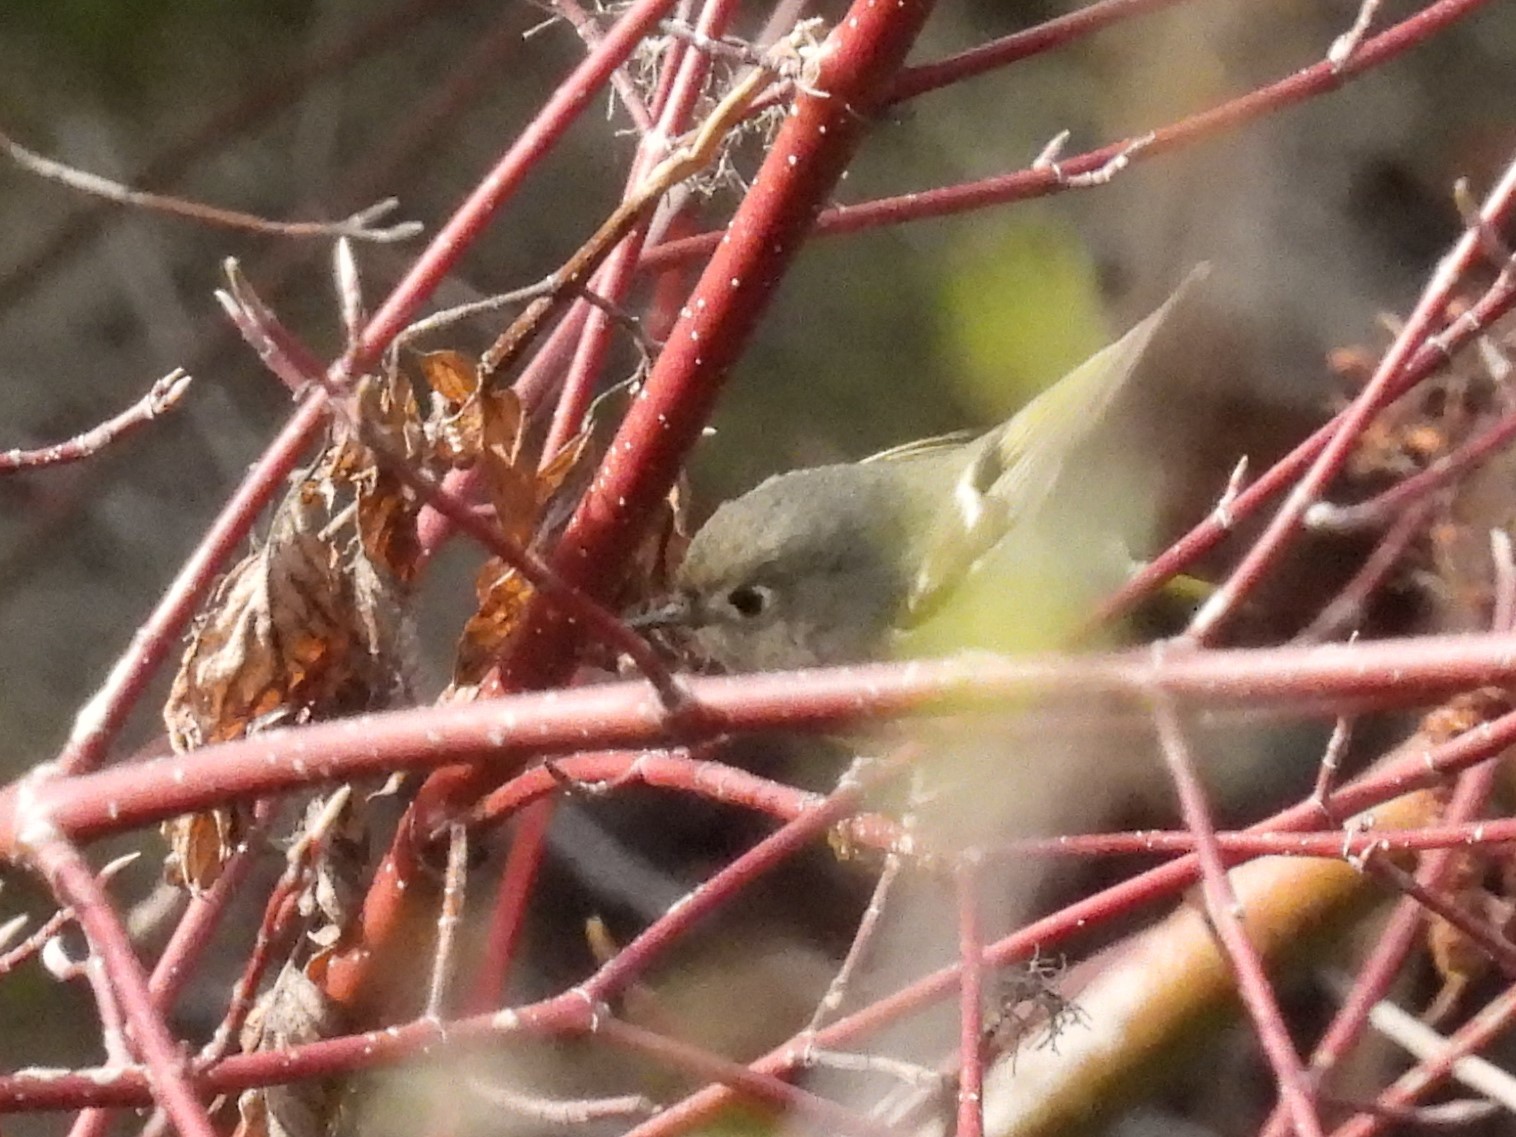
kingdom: Animalia
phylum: Chordata
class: Aves
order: Passeriformes
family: Regulidae
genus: Regulus
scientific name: Regulus calendula
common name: Ruby-crowned kinglet
